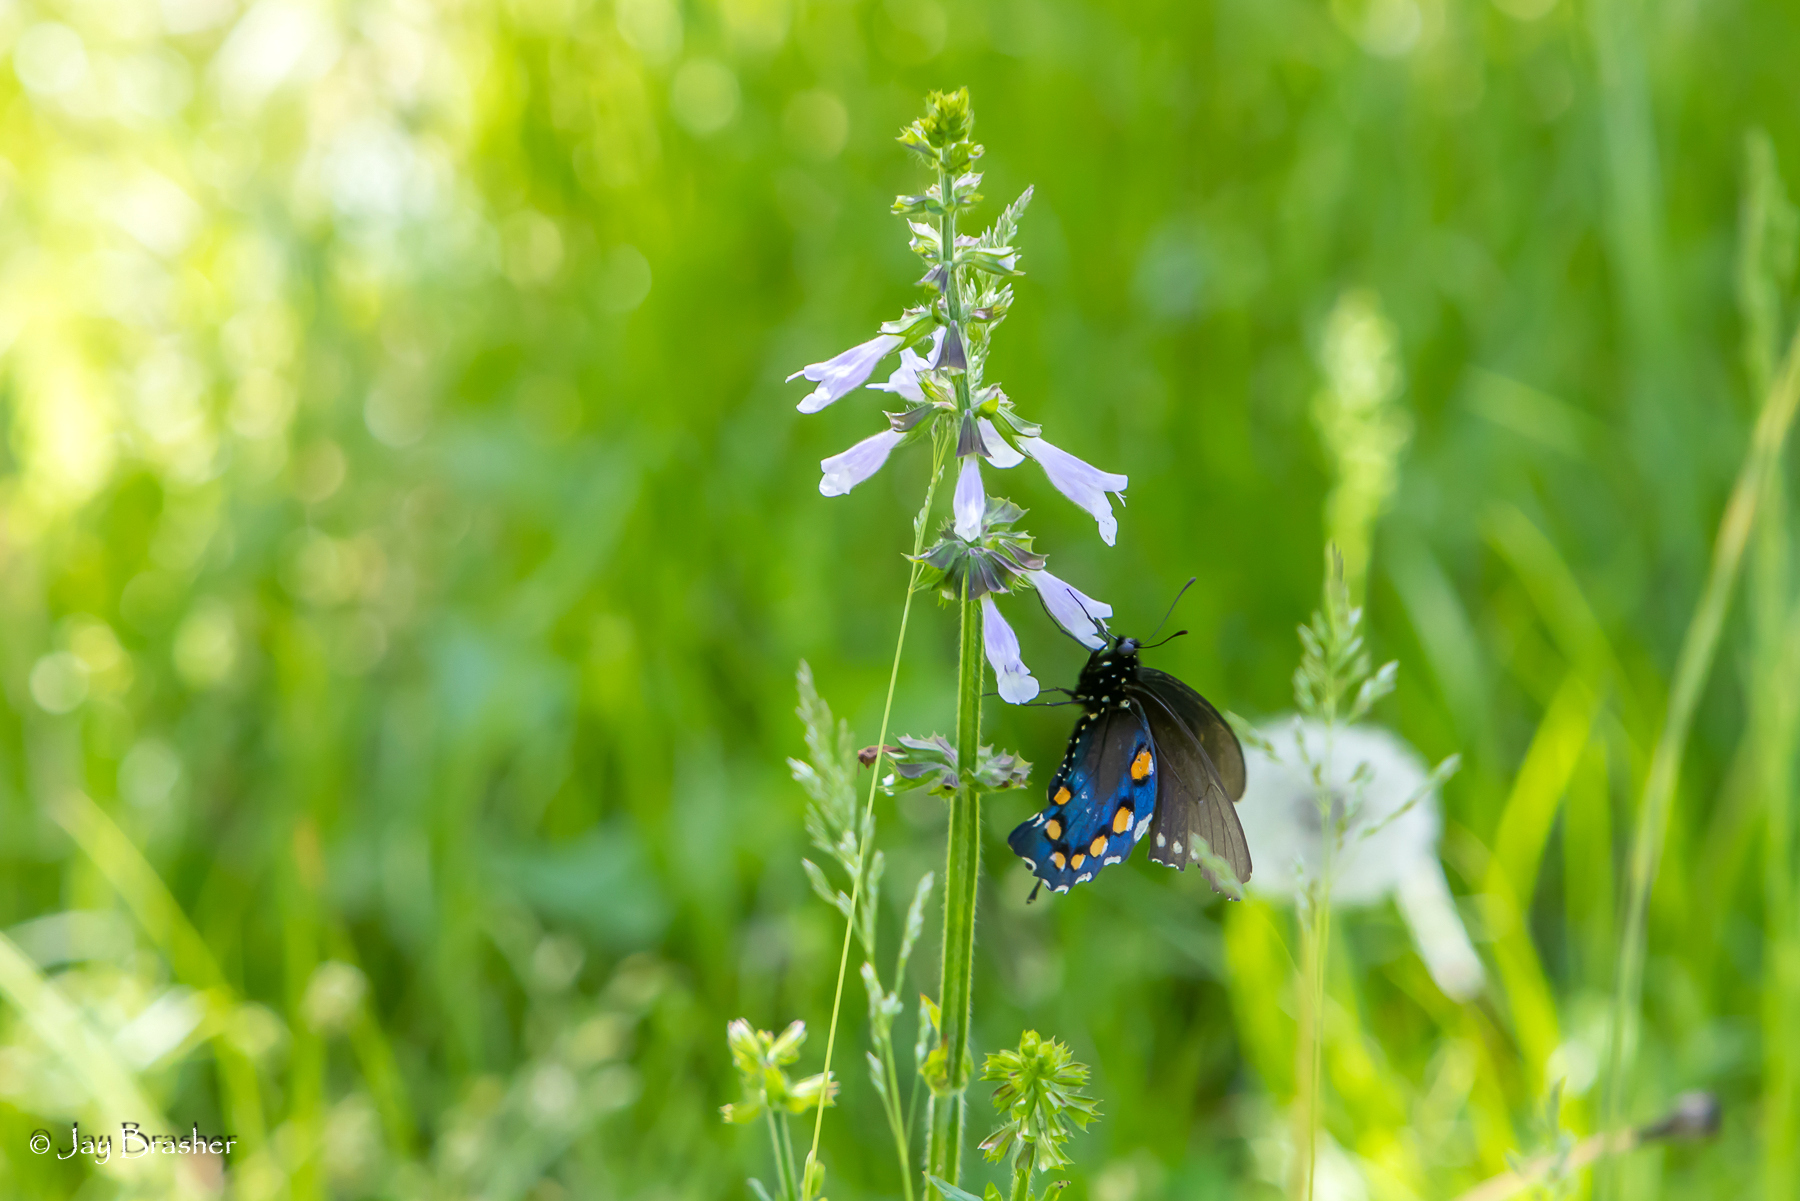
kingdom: Animalia
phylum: Arthropoda
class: Insecta
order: Lepidoptera
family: Papilionidae
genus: Battus
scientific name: Battus philenor
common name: Pipevine swallowtail
